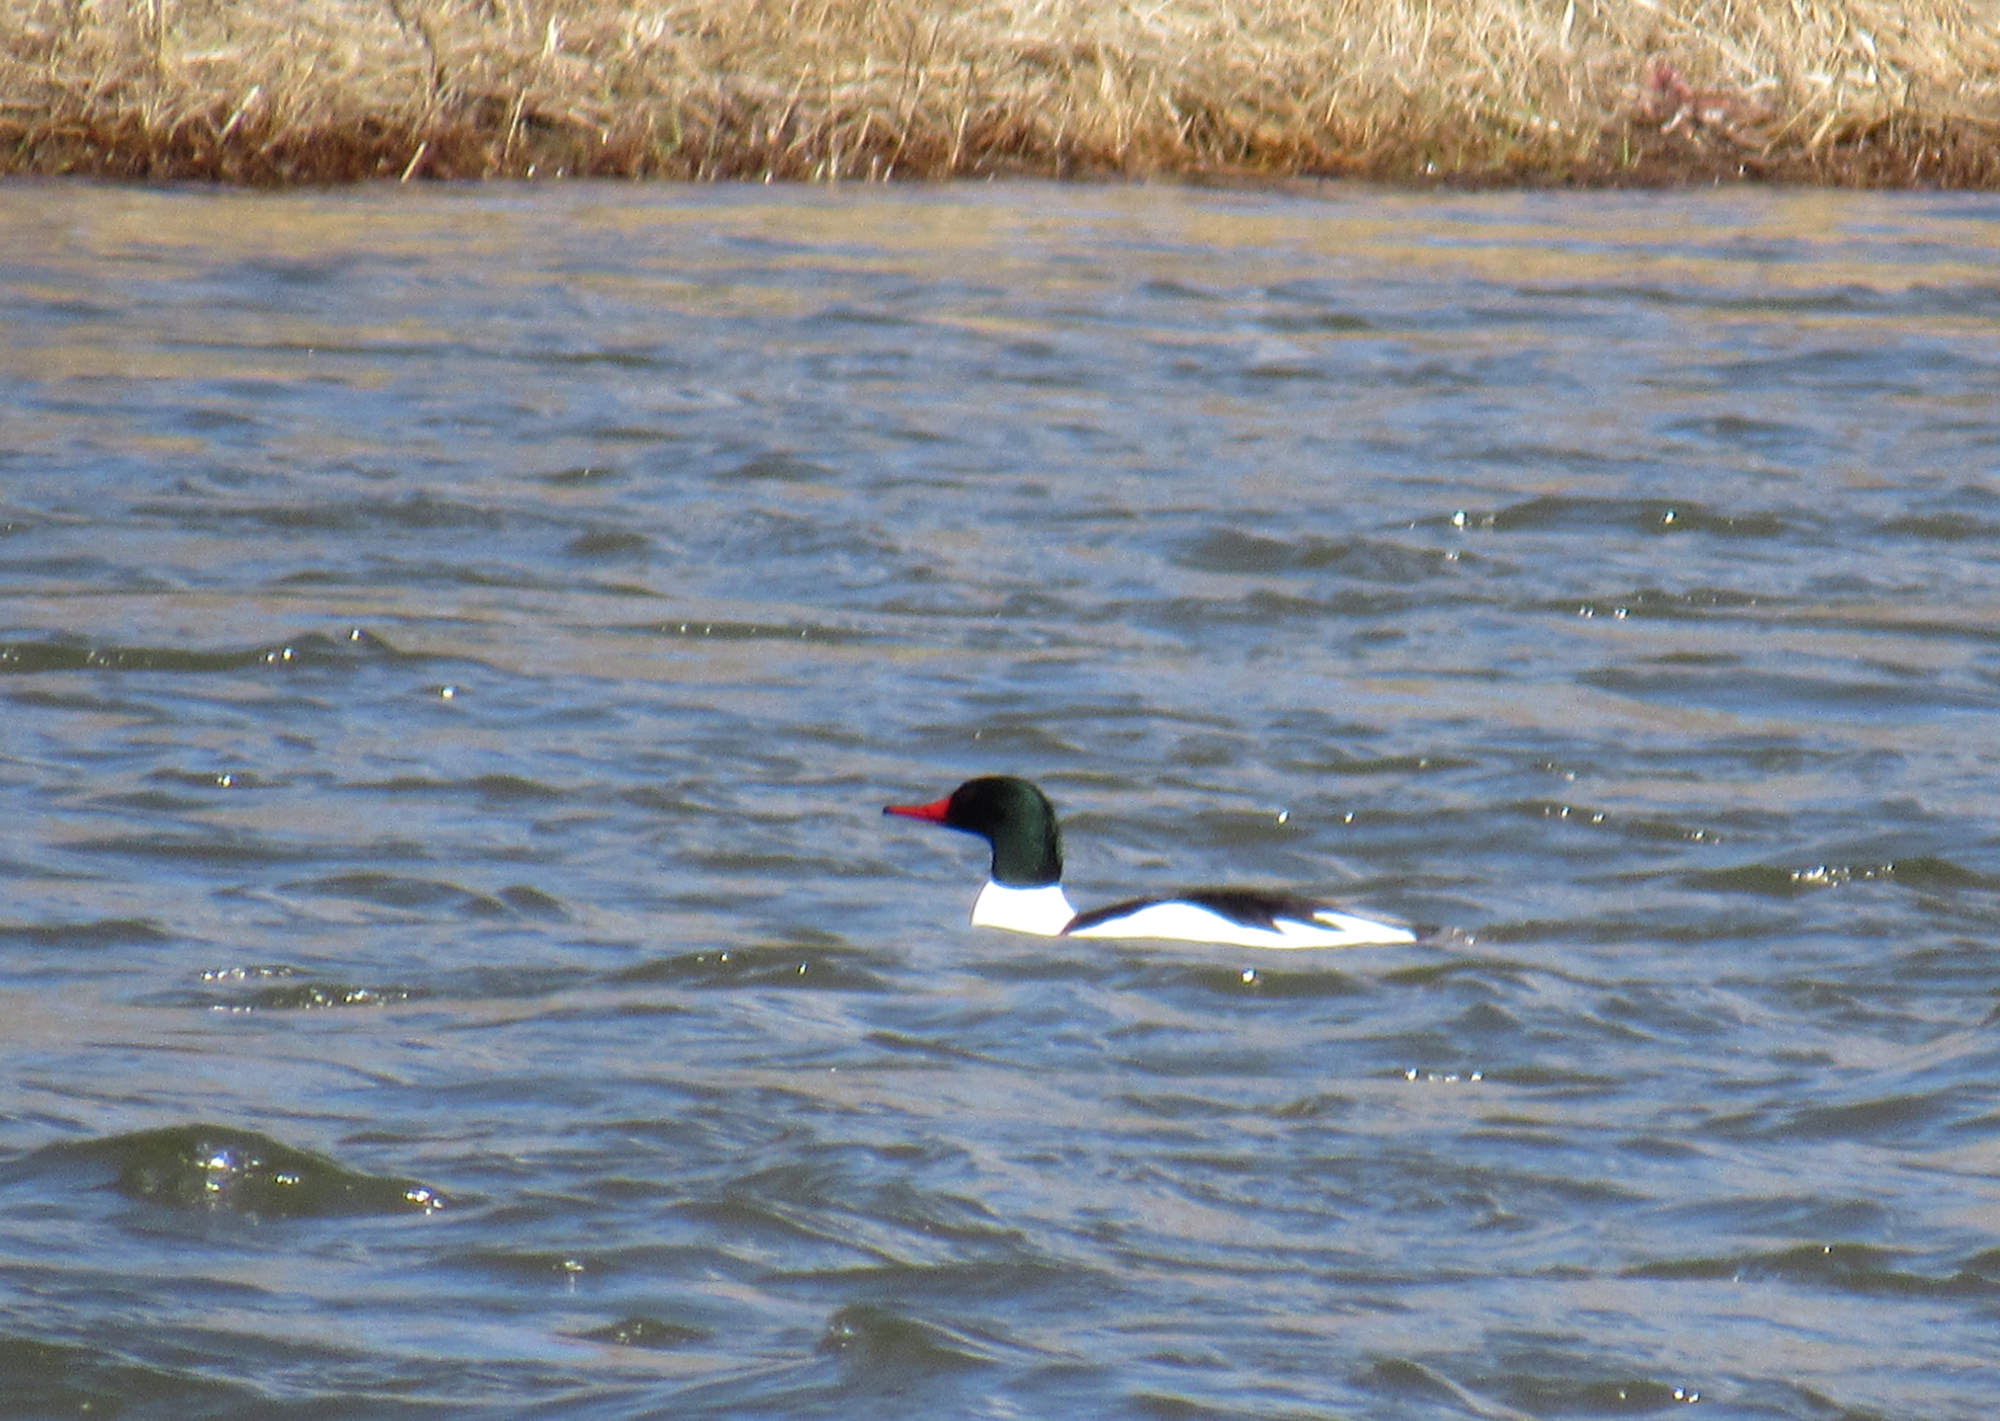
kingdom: Animalia
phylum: Chordata
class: Aves
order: Anseriformes
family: Anatidae
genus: Mergus
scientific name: Mergus merganser
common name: Common merganser
